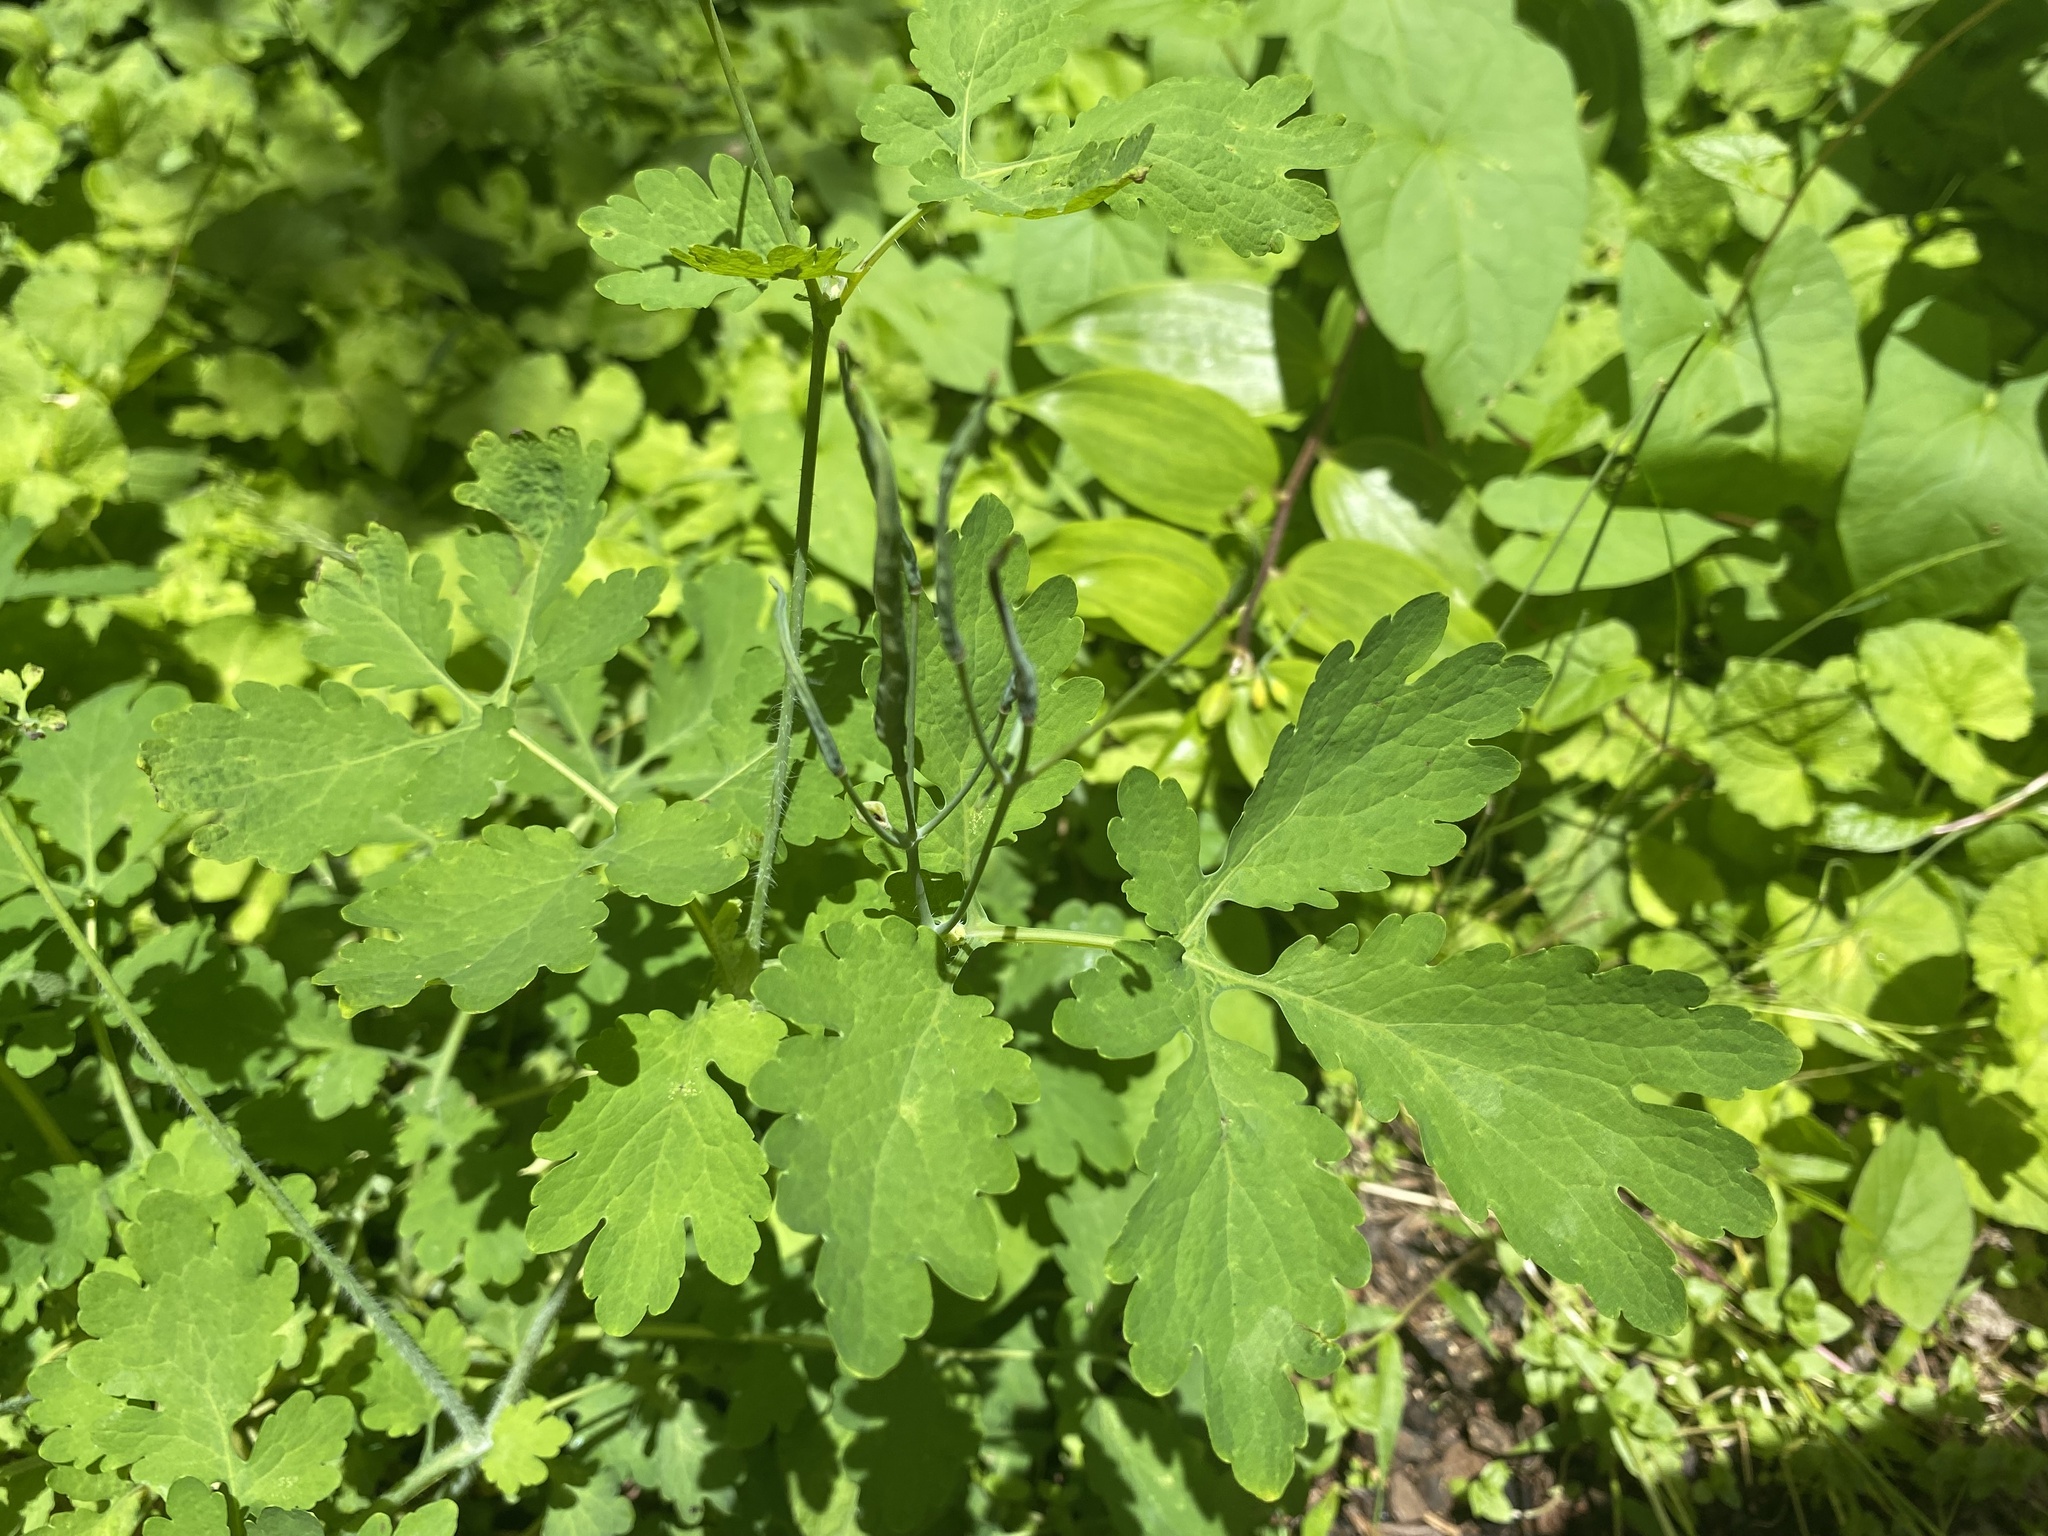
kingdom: Plantae
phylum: Tracheophyta
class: Magnoliopsida
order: Ranunculales
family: Papaveraceae
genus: Chelidonium
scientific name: Chelidonium majus
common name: Greater celandine
